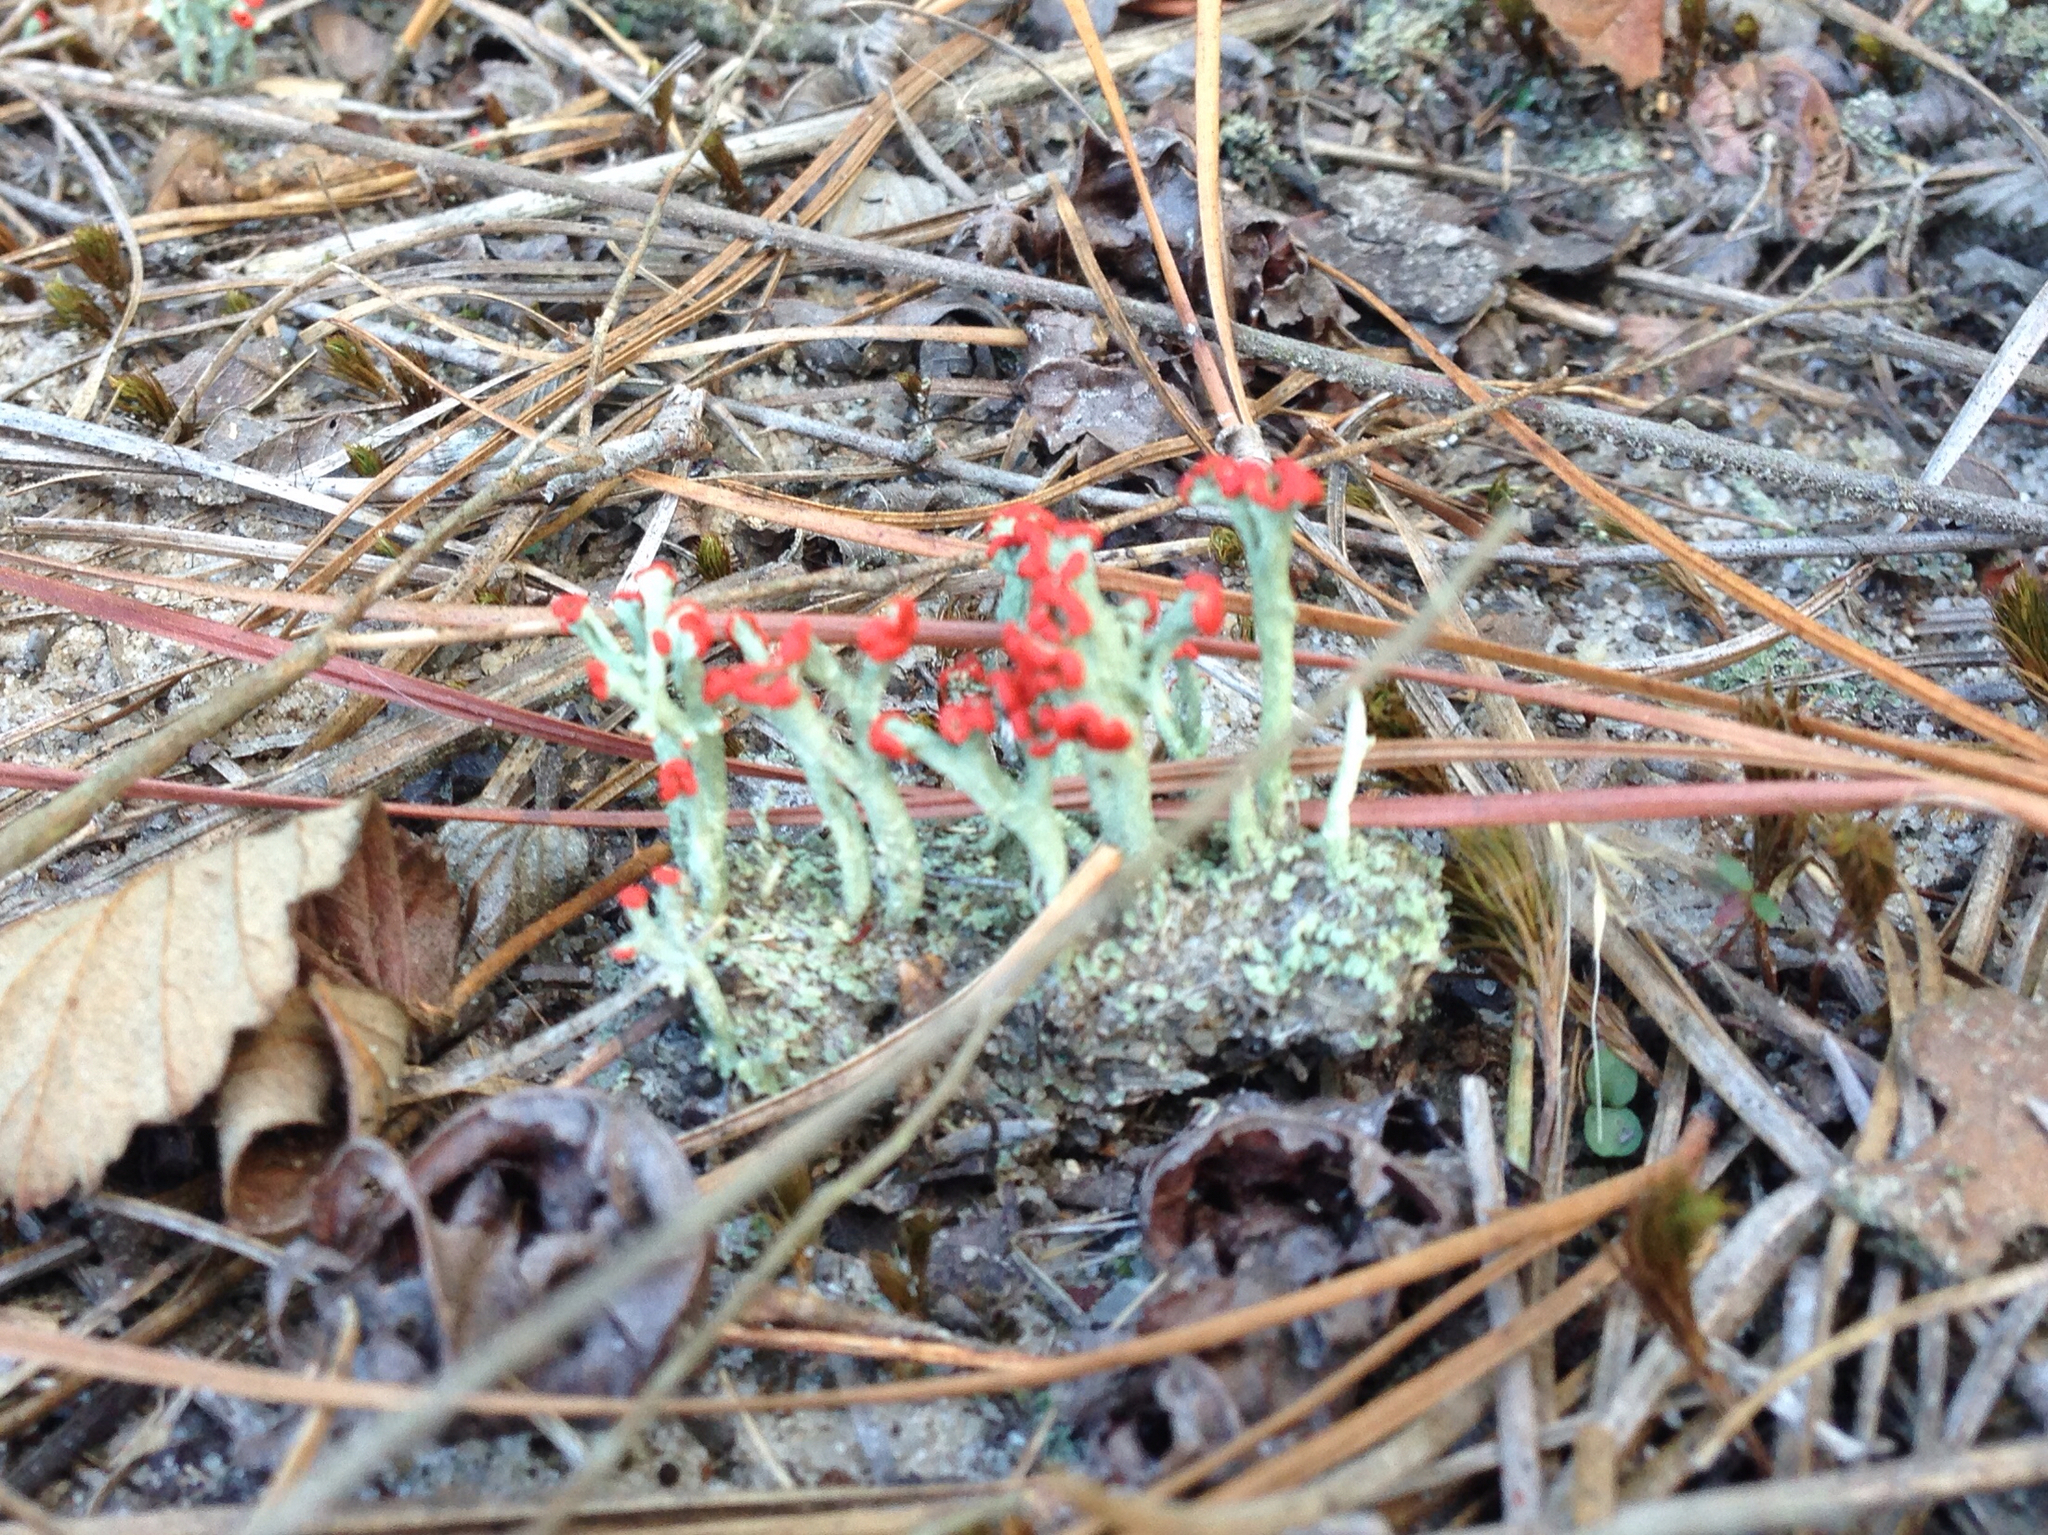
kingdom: Fungi
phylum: Ascomycota
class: Lecanoromycetes
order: Lecanorales
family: Cladoniaceae
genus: Cladonia
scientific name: Cladonia cristatella
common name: British soldier lichen
